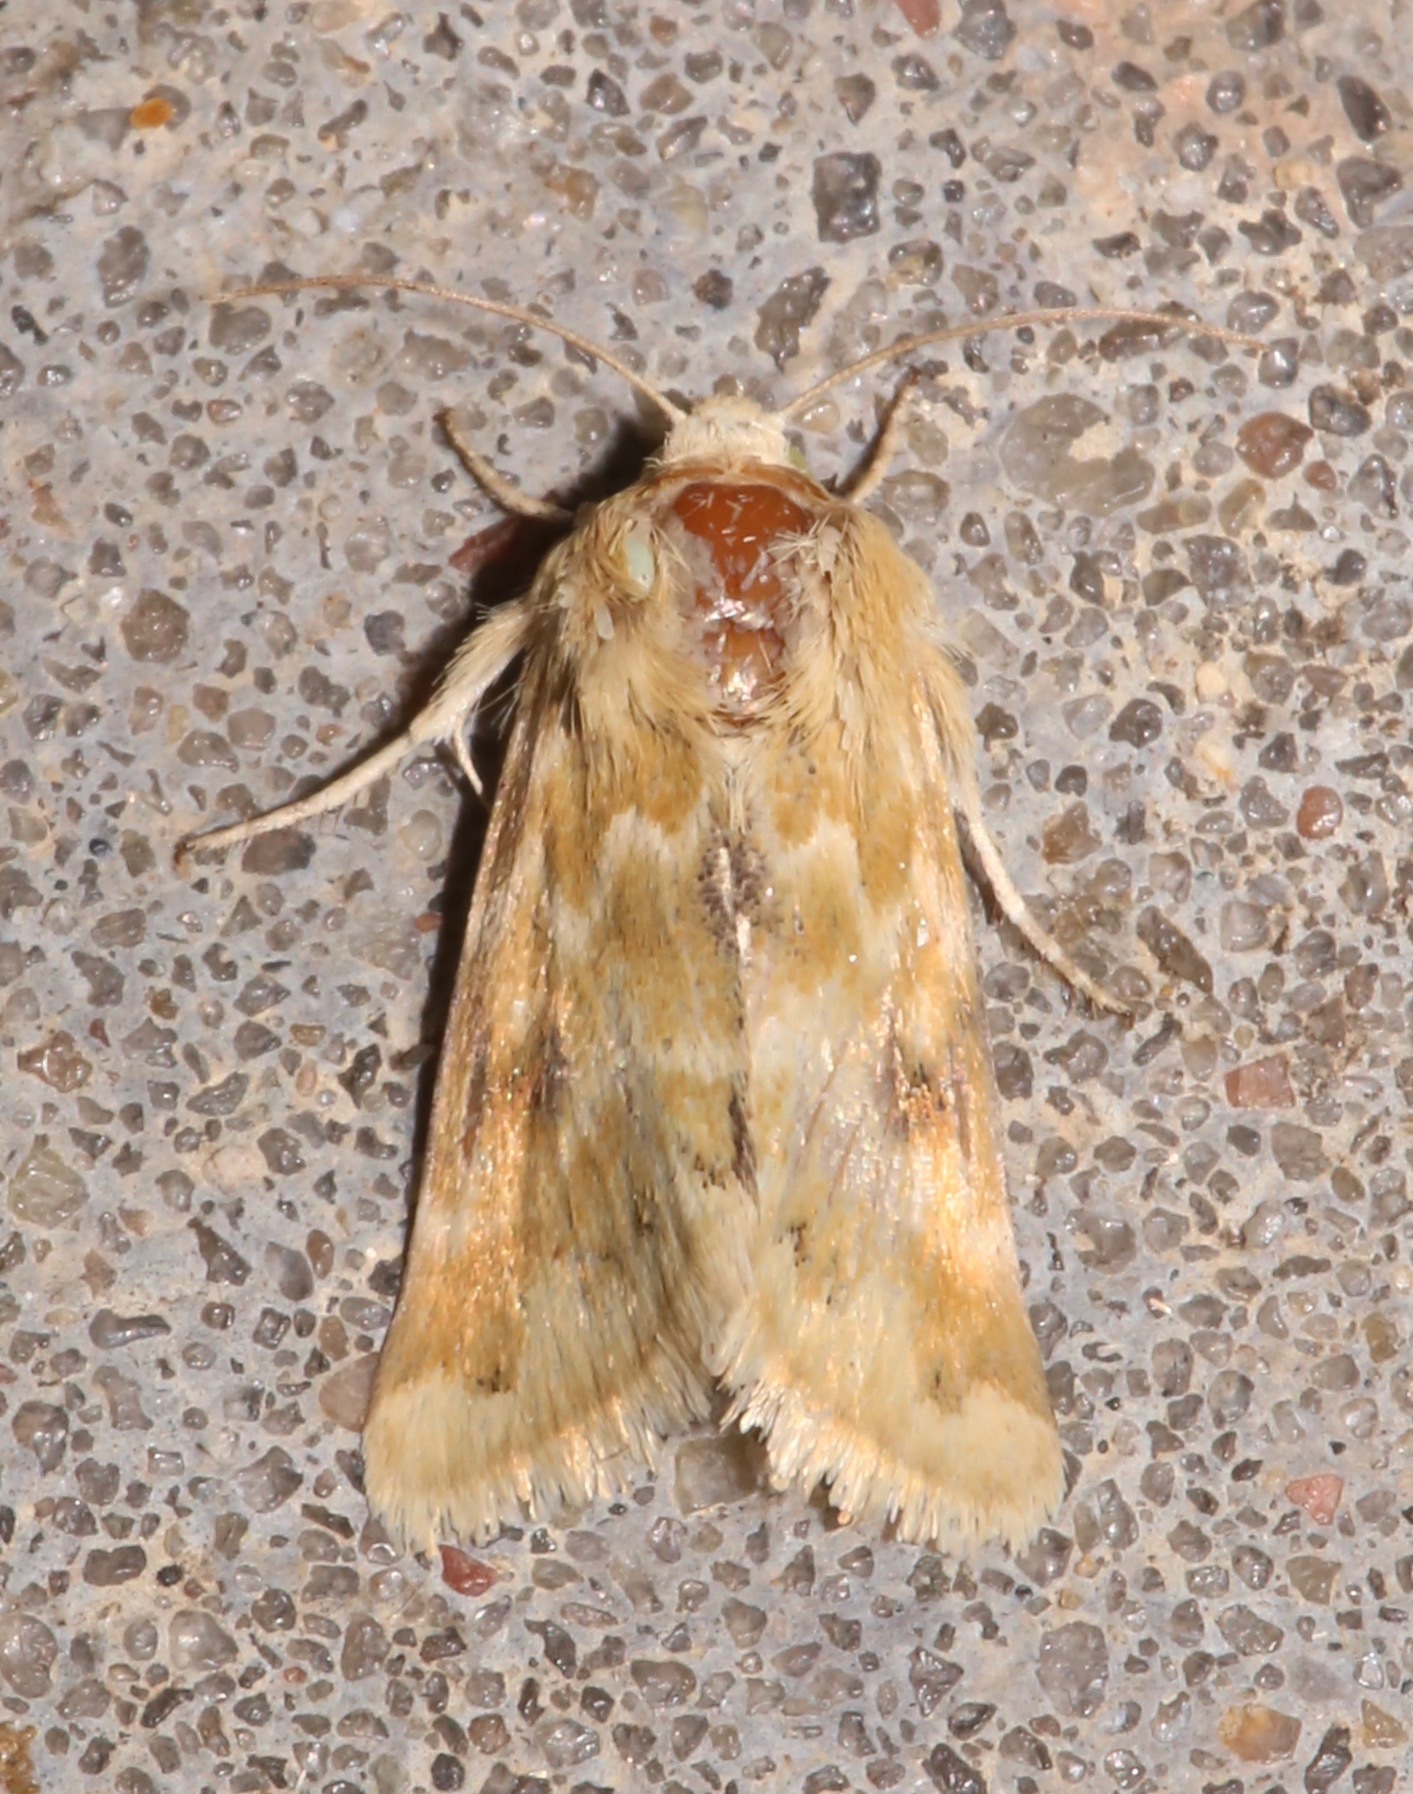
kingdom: Animalia
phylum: Arthropoda
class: Insecta
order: Lepidoptera
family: Noctuidae
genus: Schinia
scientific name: Schinia bicuspida
